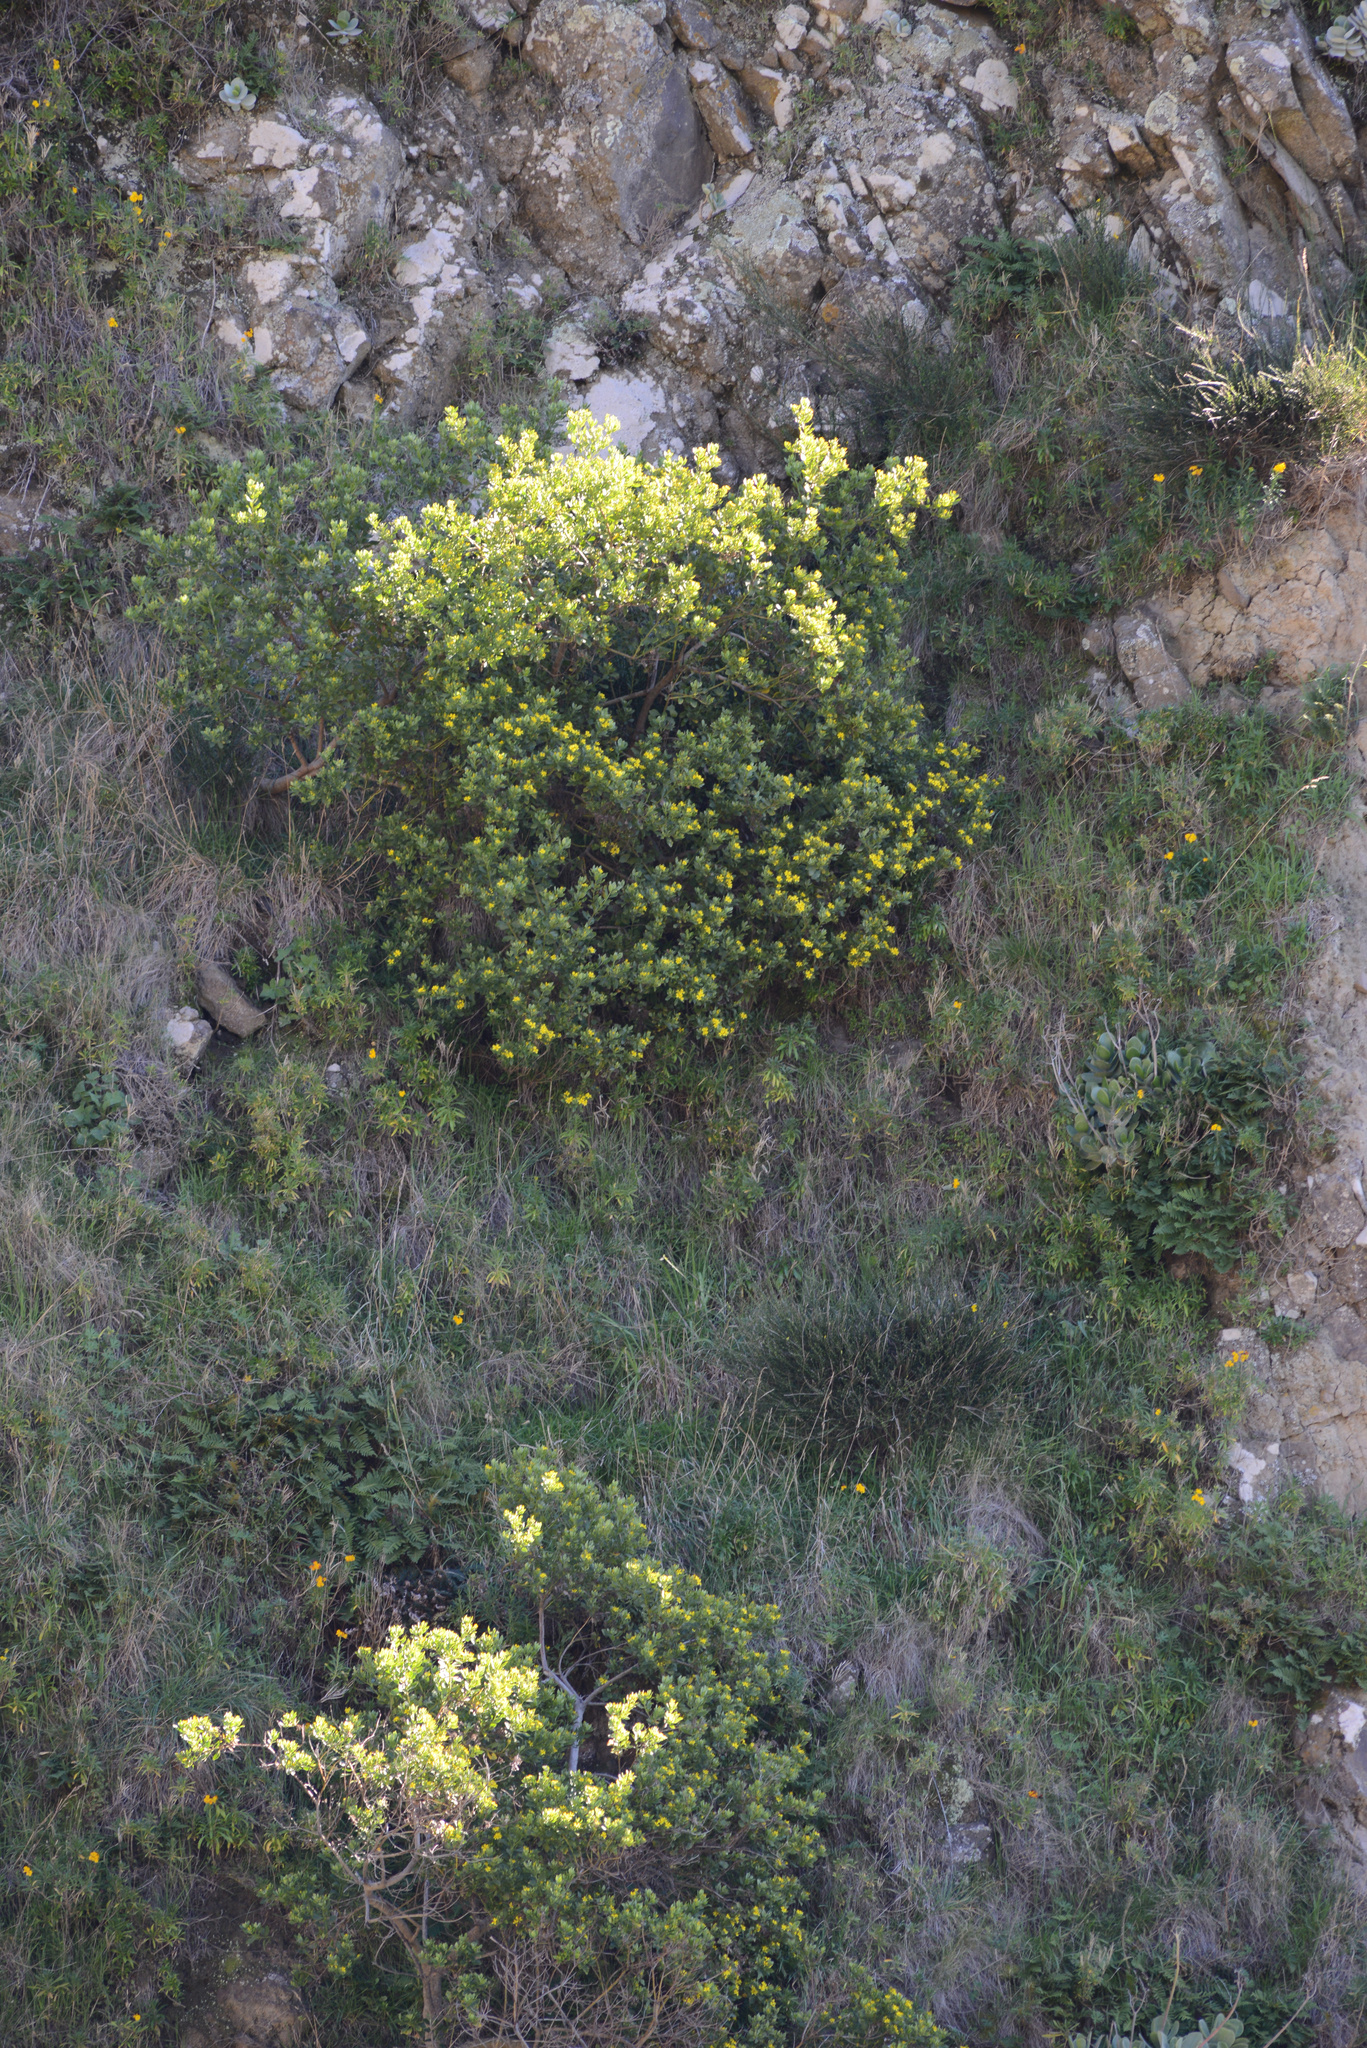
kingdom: Plantae
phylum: Tracheophyta
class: Magnoliopsida
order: Asterales
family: Asteraceae
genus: Osteospermum
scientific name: Osteospermum moniliferum
